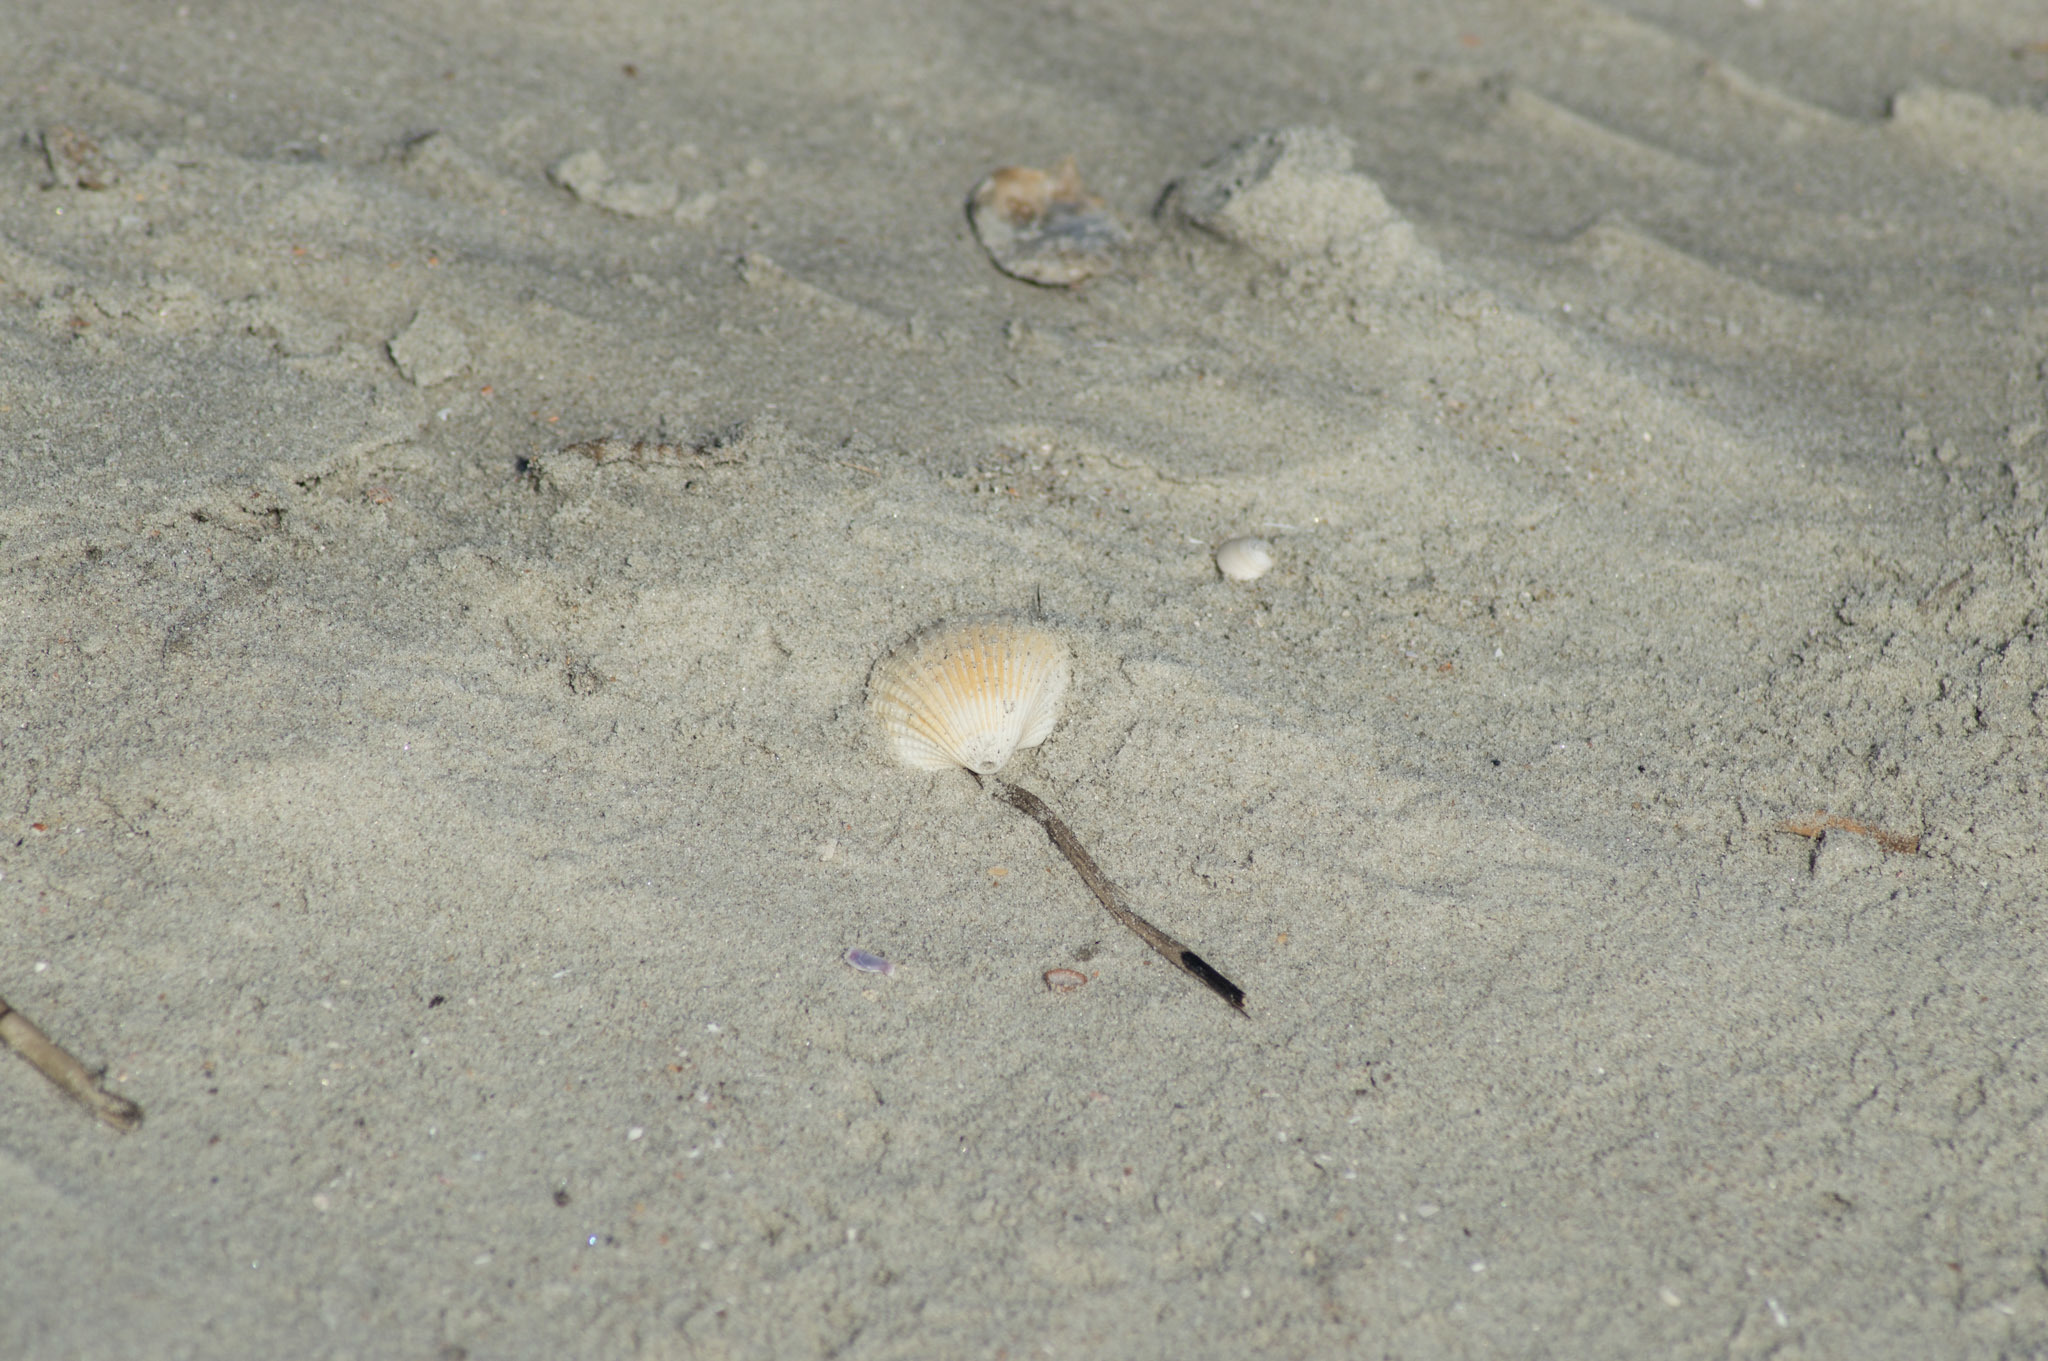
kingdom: Animalia
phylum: Mollusca
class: Bivalvia
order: Arcida
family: Arcidae
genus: Anadara
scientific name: Anadara brasiliana
